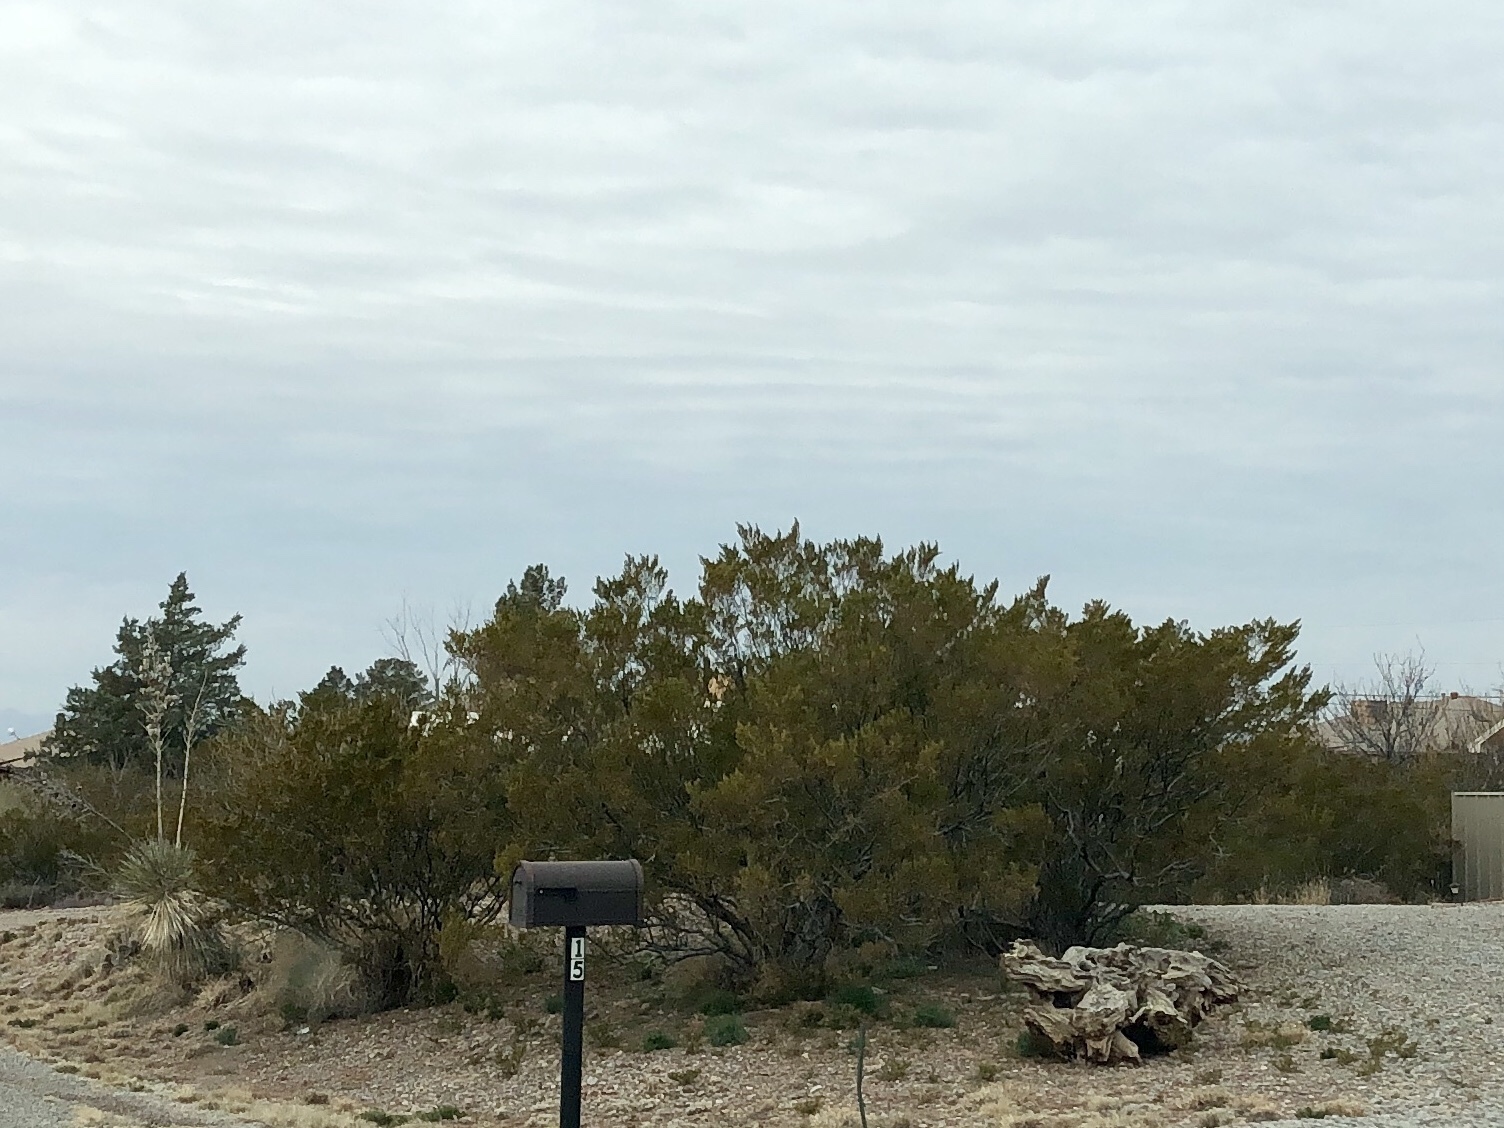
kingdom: Plantae
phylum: Tracheophyta
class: Magnoliopsida
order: Zygophyllales
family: Zygophyllaceae
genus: Larrea
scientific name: Larrea tridentata
